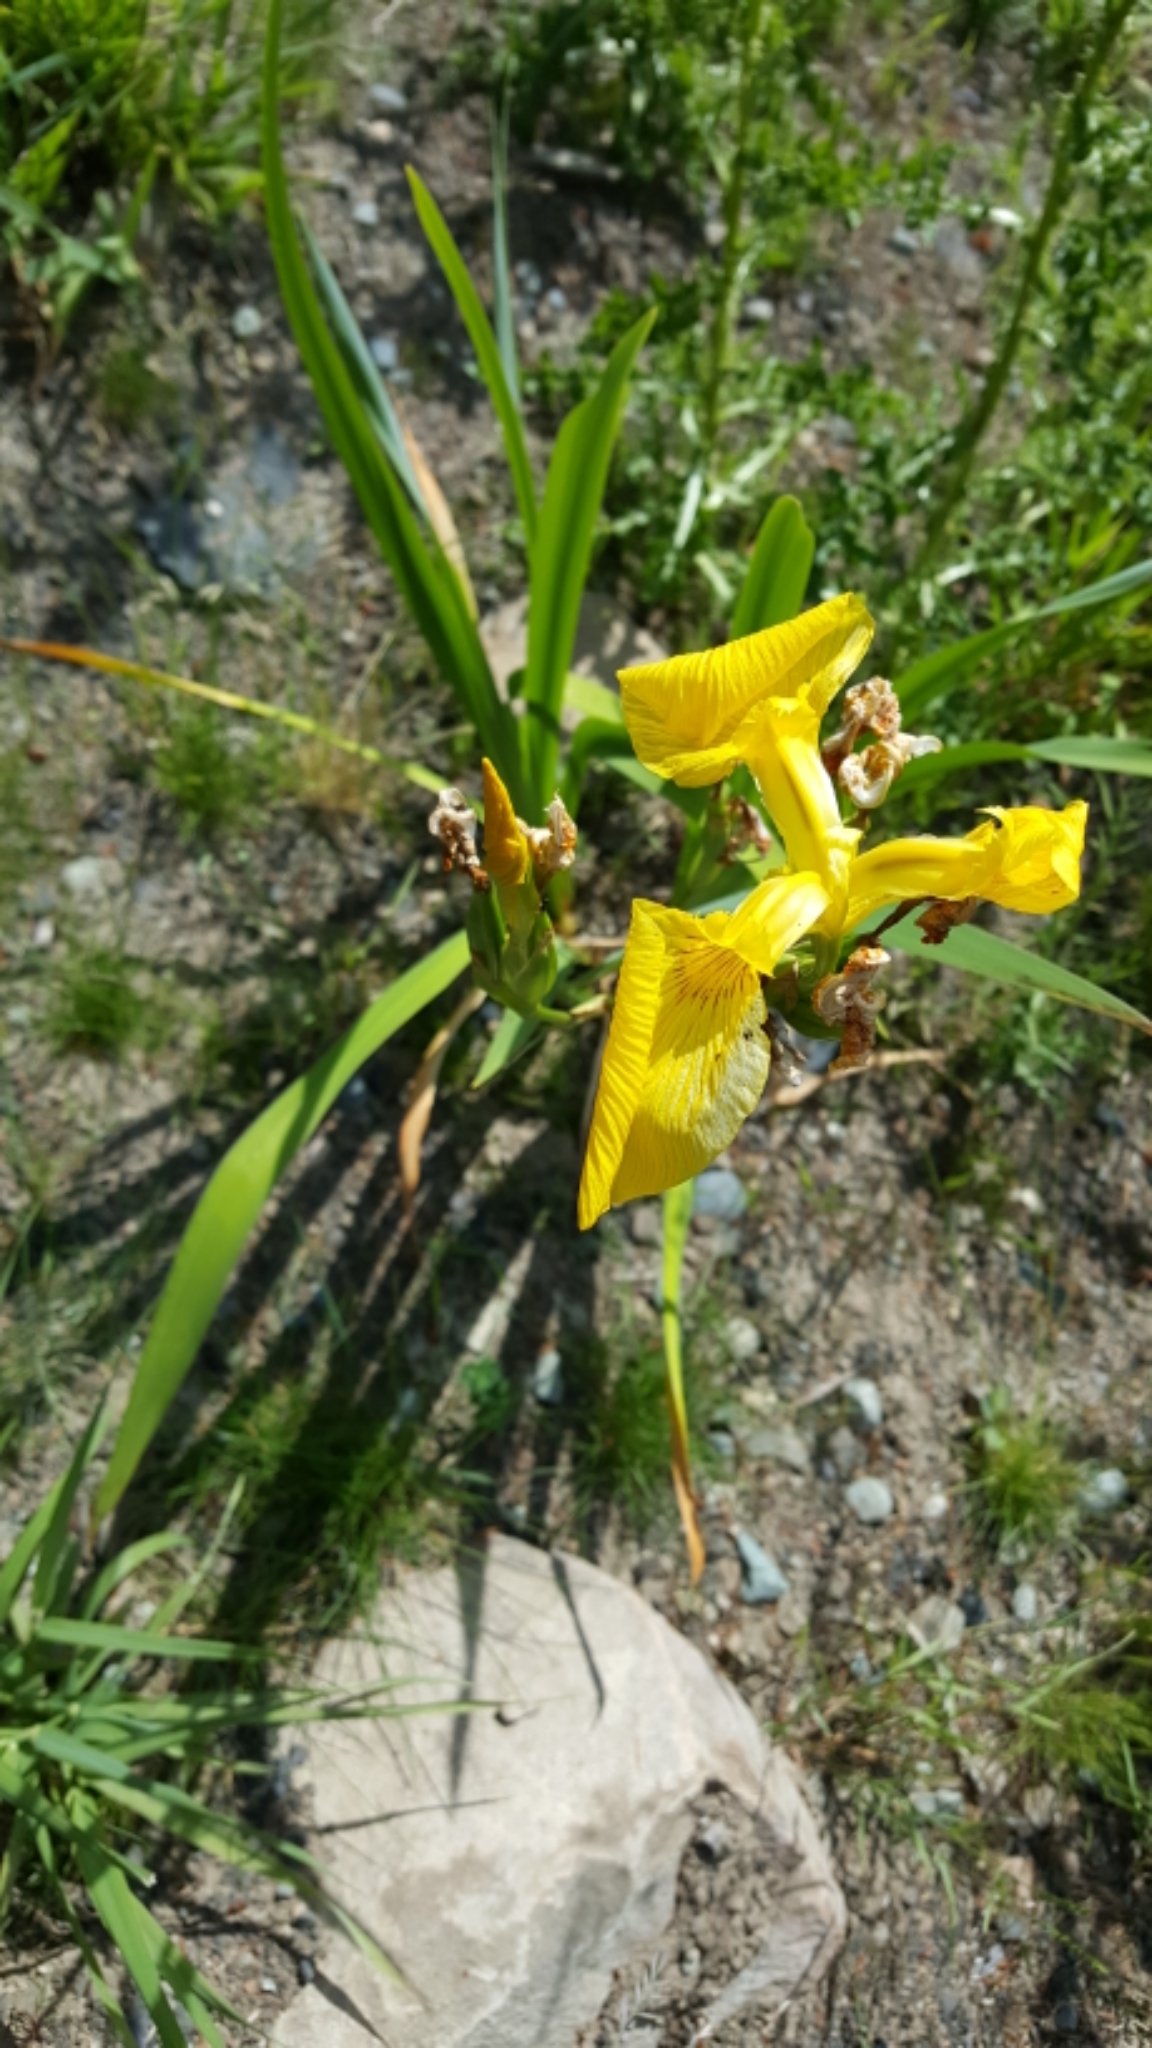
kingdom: Plantae
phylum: Tracheophyta
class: Liliopsida
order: Asparagales
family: Iridaceae
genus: Iris
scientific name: Iris pseudacorus
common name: Yellow flag
